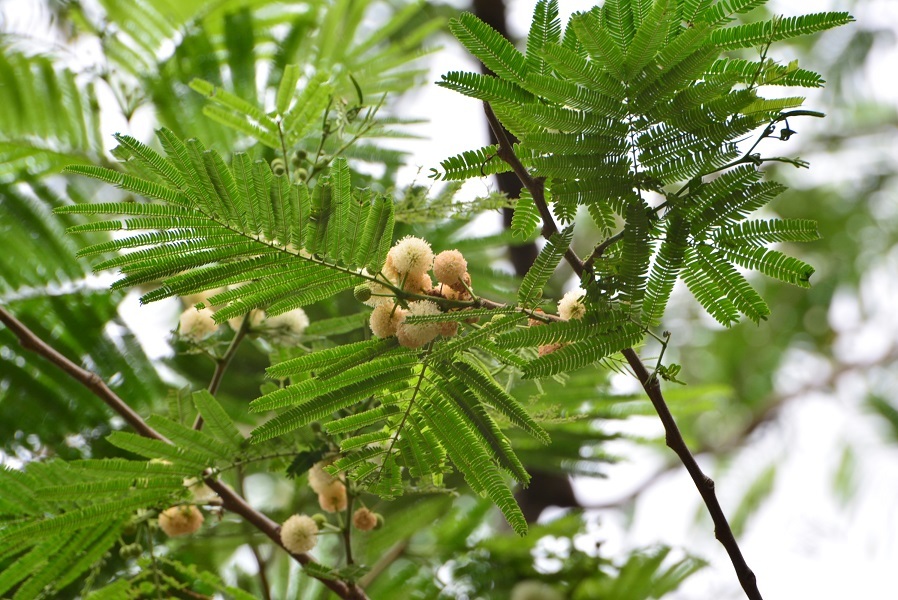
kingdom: Plantae
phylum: Tracheophyta
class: Magnoliopsida
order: Fabales
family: Fabaceae
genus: Leucaena
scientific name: Leucaena diversifolia
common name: Red leucaena
